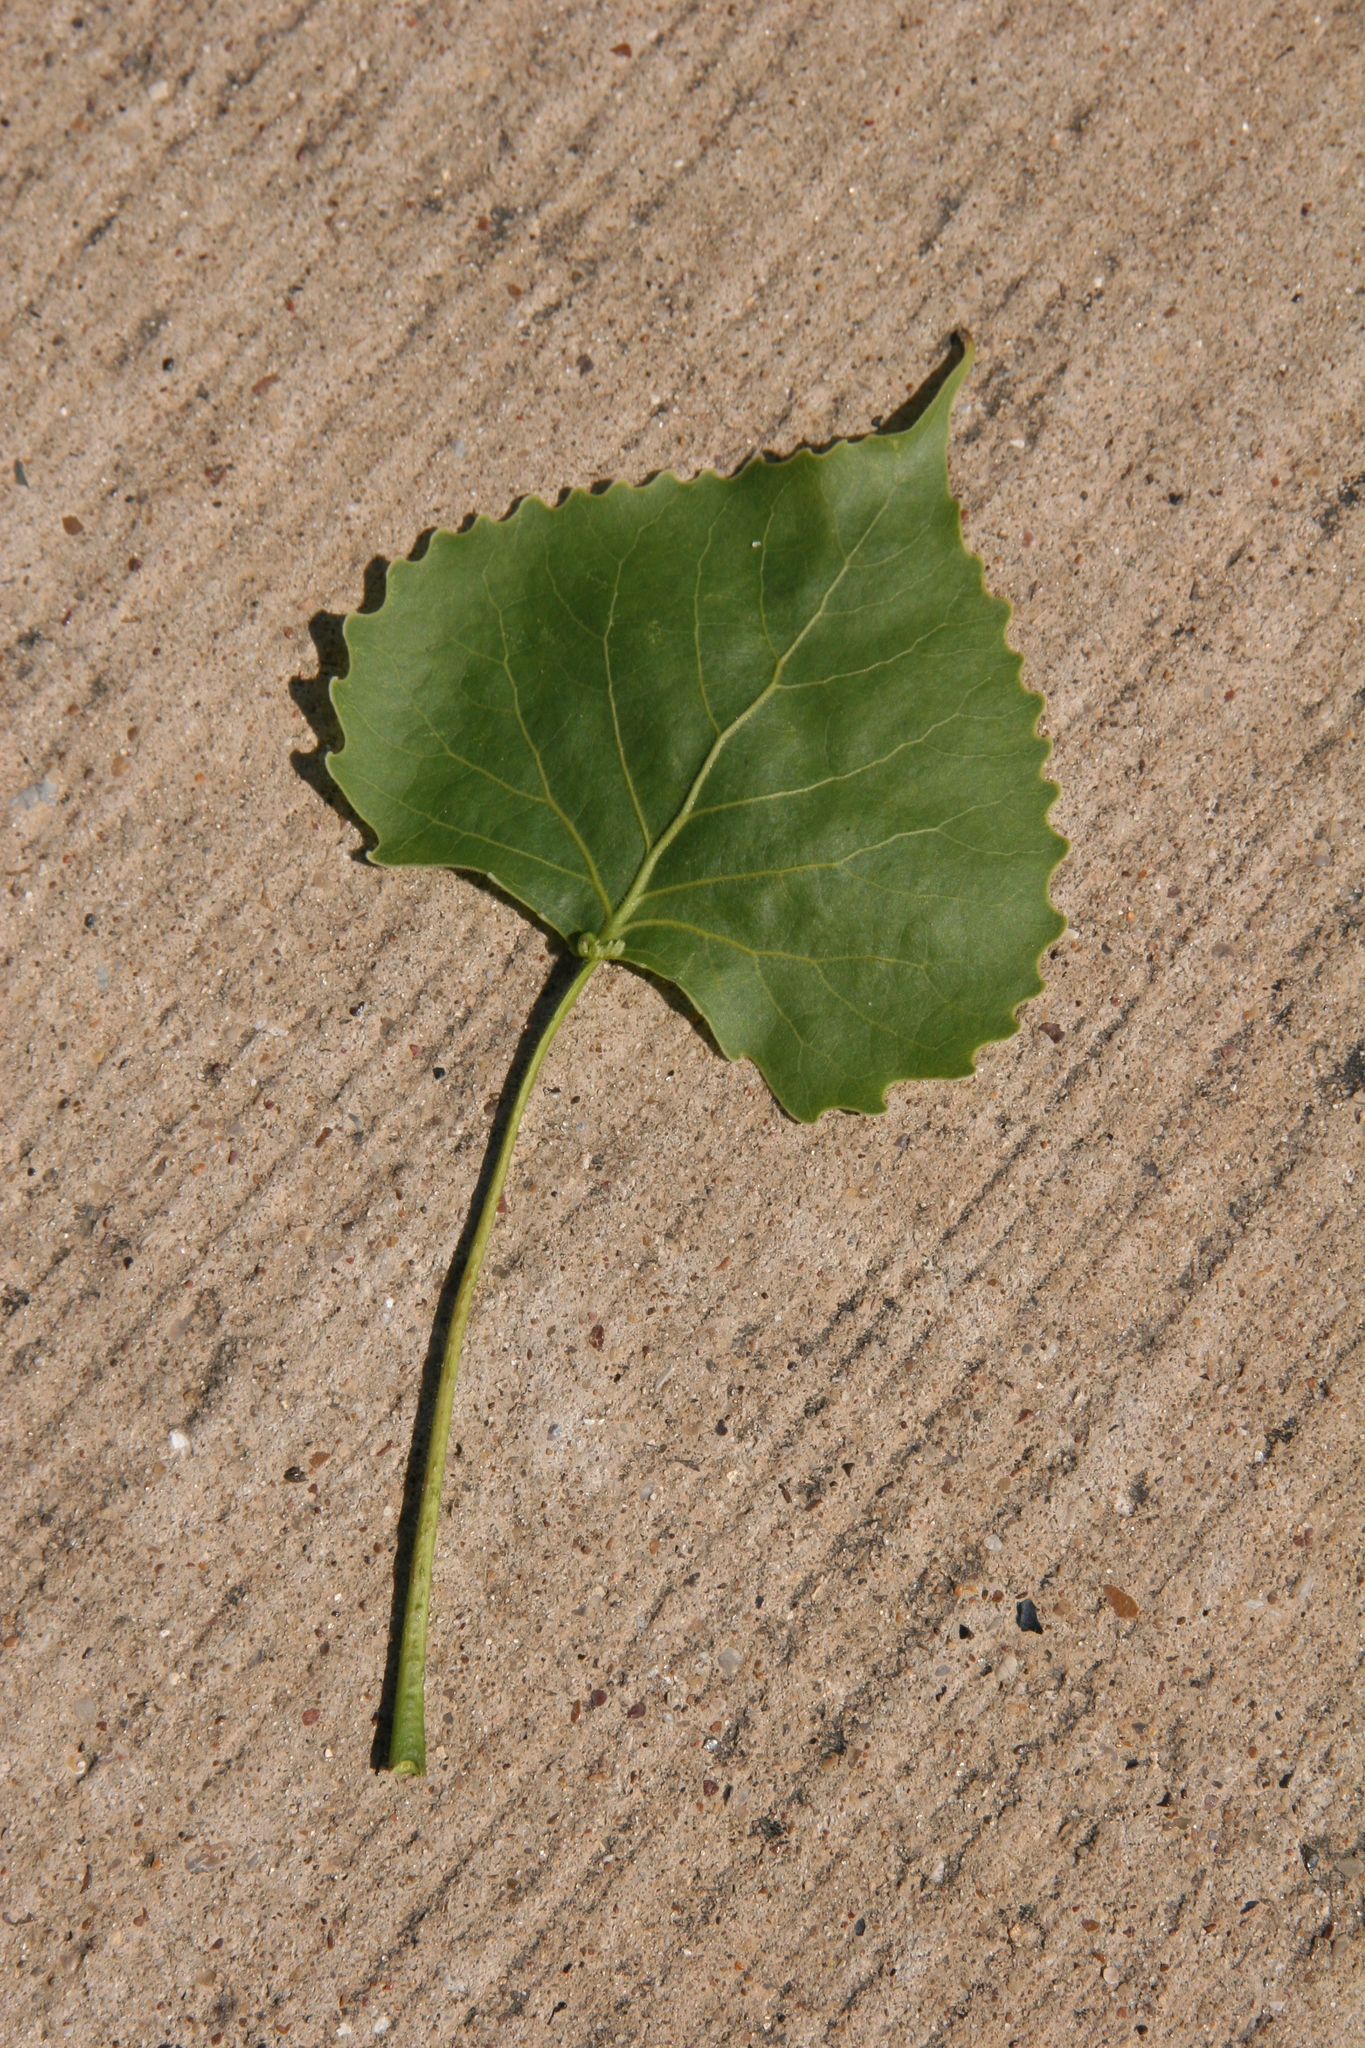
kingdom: Plantae
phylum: Tracheophyta
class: Magnoliopsida
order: Malpighiales
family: Salicaceae
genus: Populus
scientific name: Populus deltoides
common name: Eastern cottonwood
